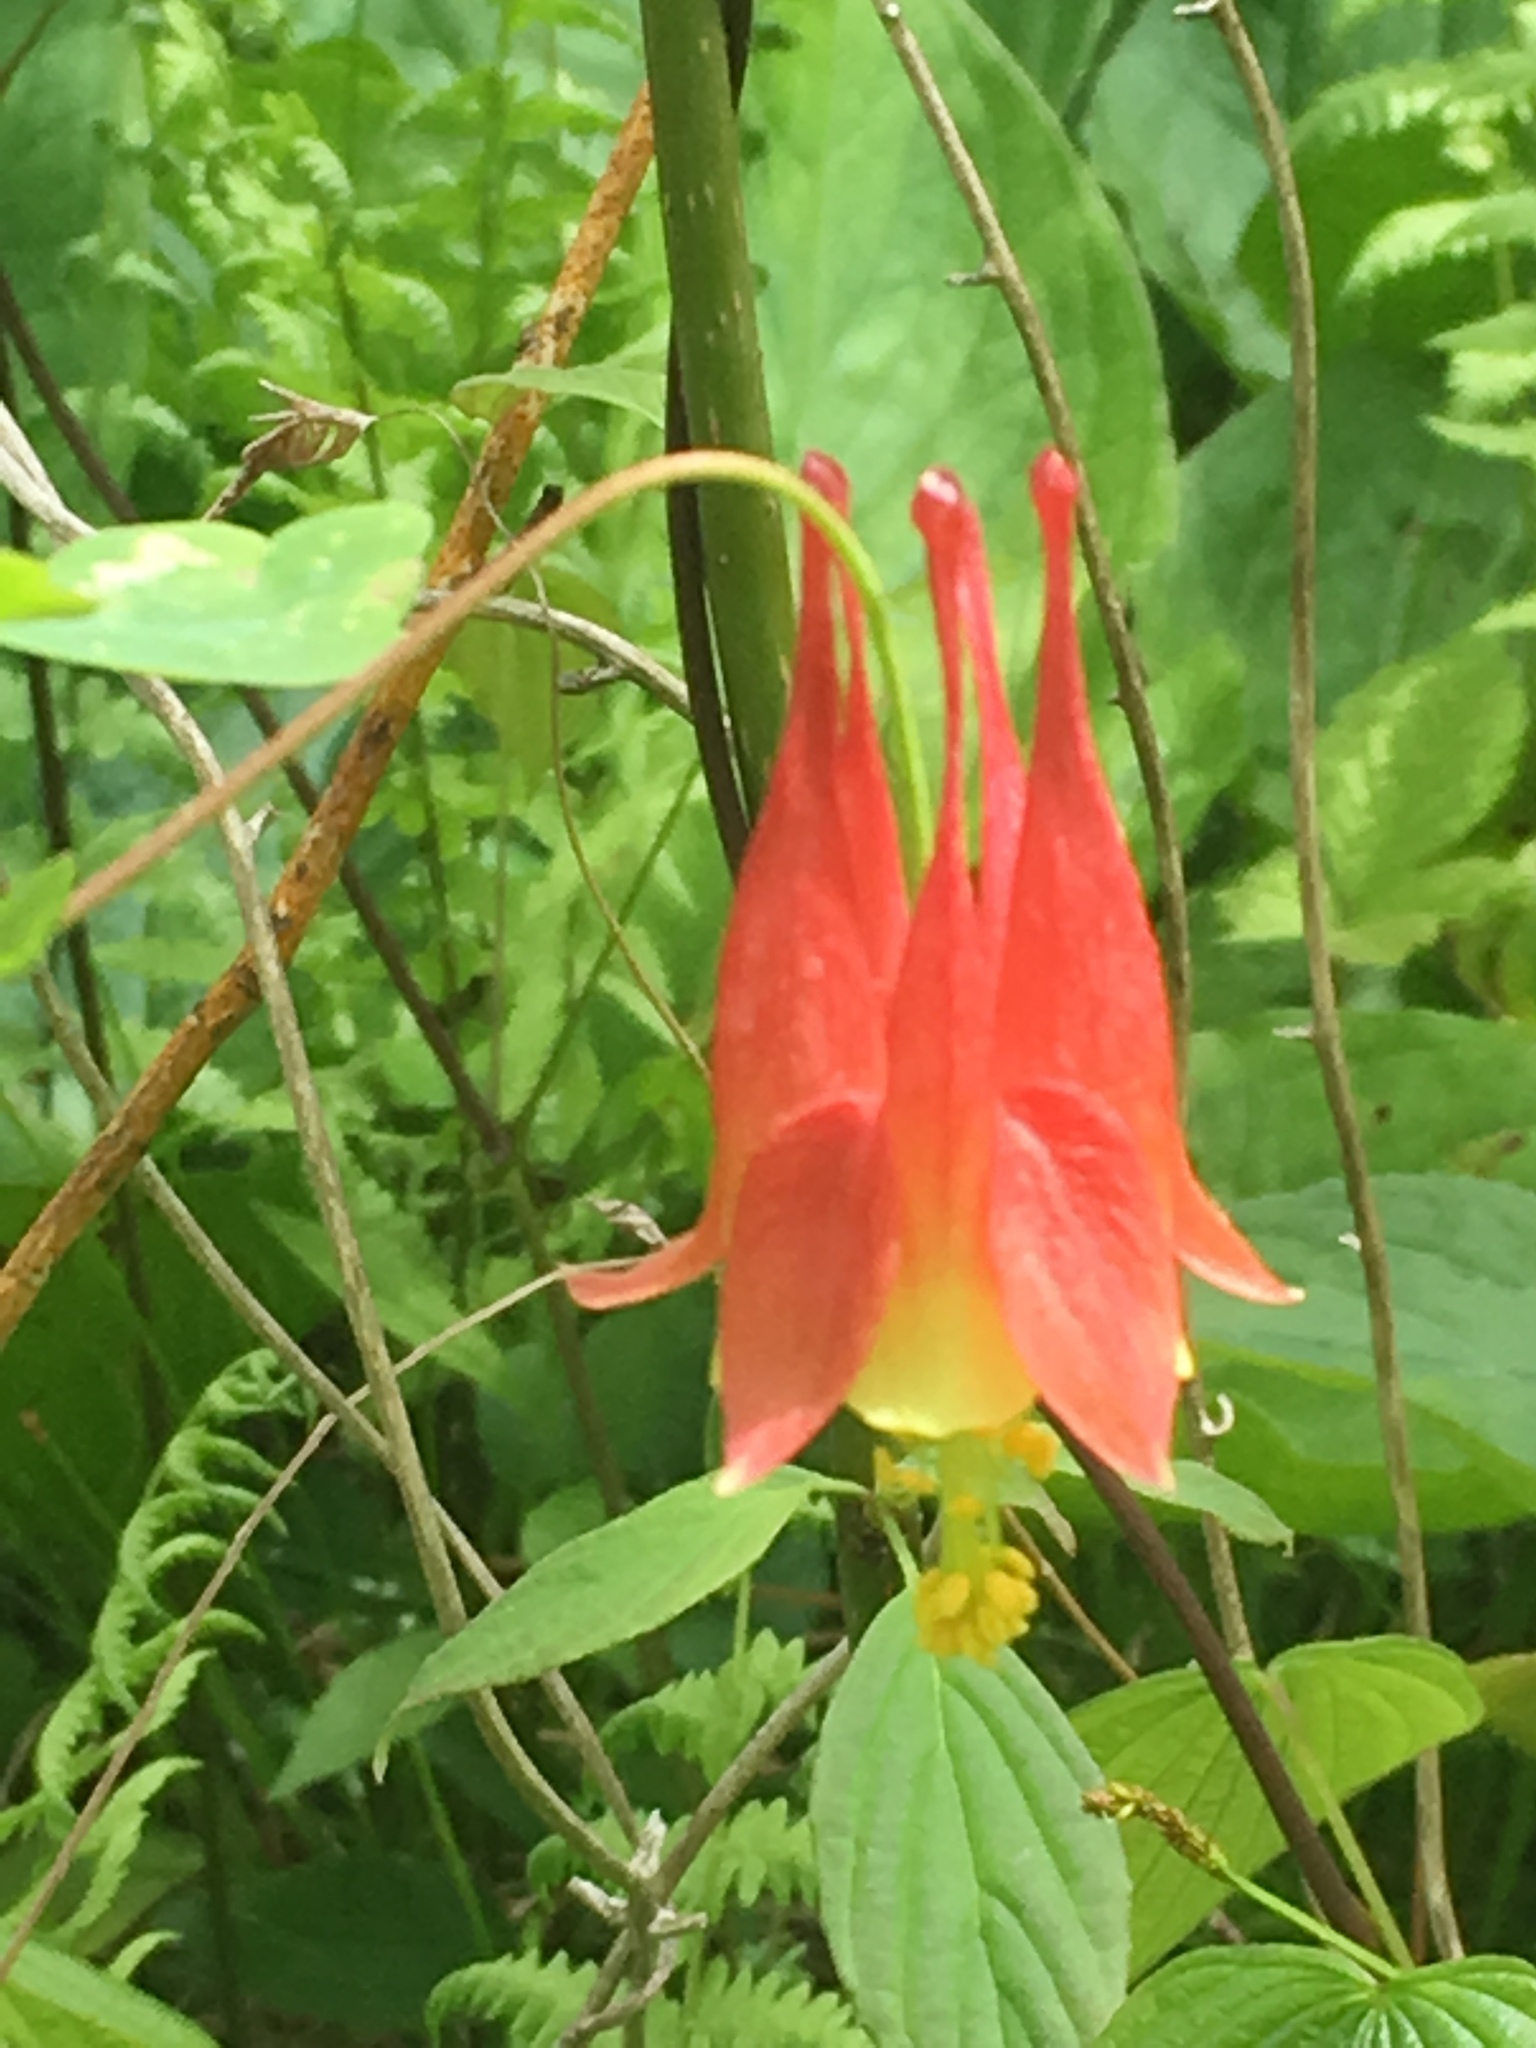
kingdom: Plantae
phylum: Tracheophyta
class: Magnoliopsida
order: Ranunculales
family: Ranunculaceae
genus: Aquilegia
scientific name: Aquilegia canadensis
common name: American columbine
